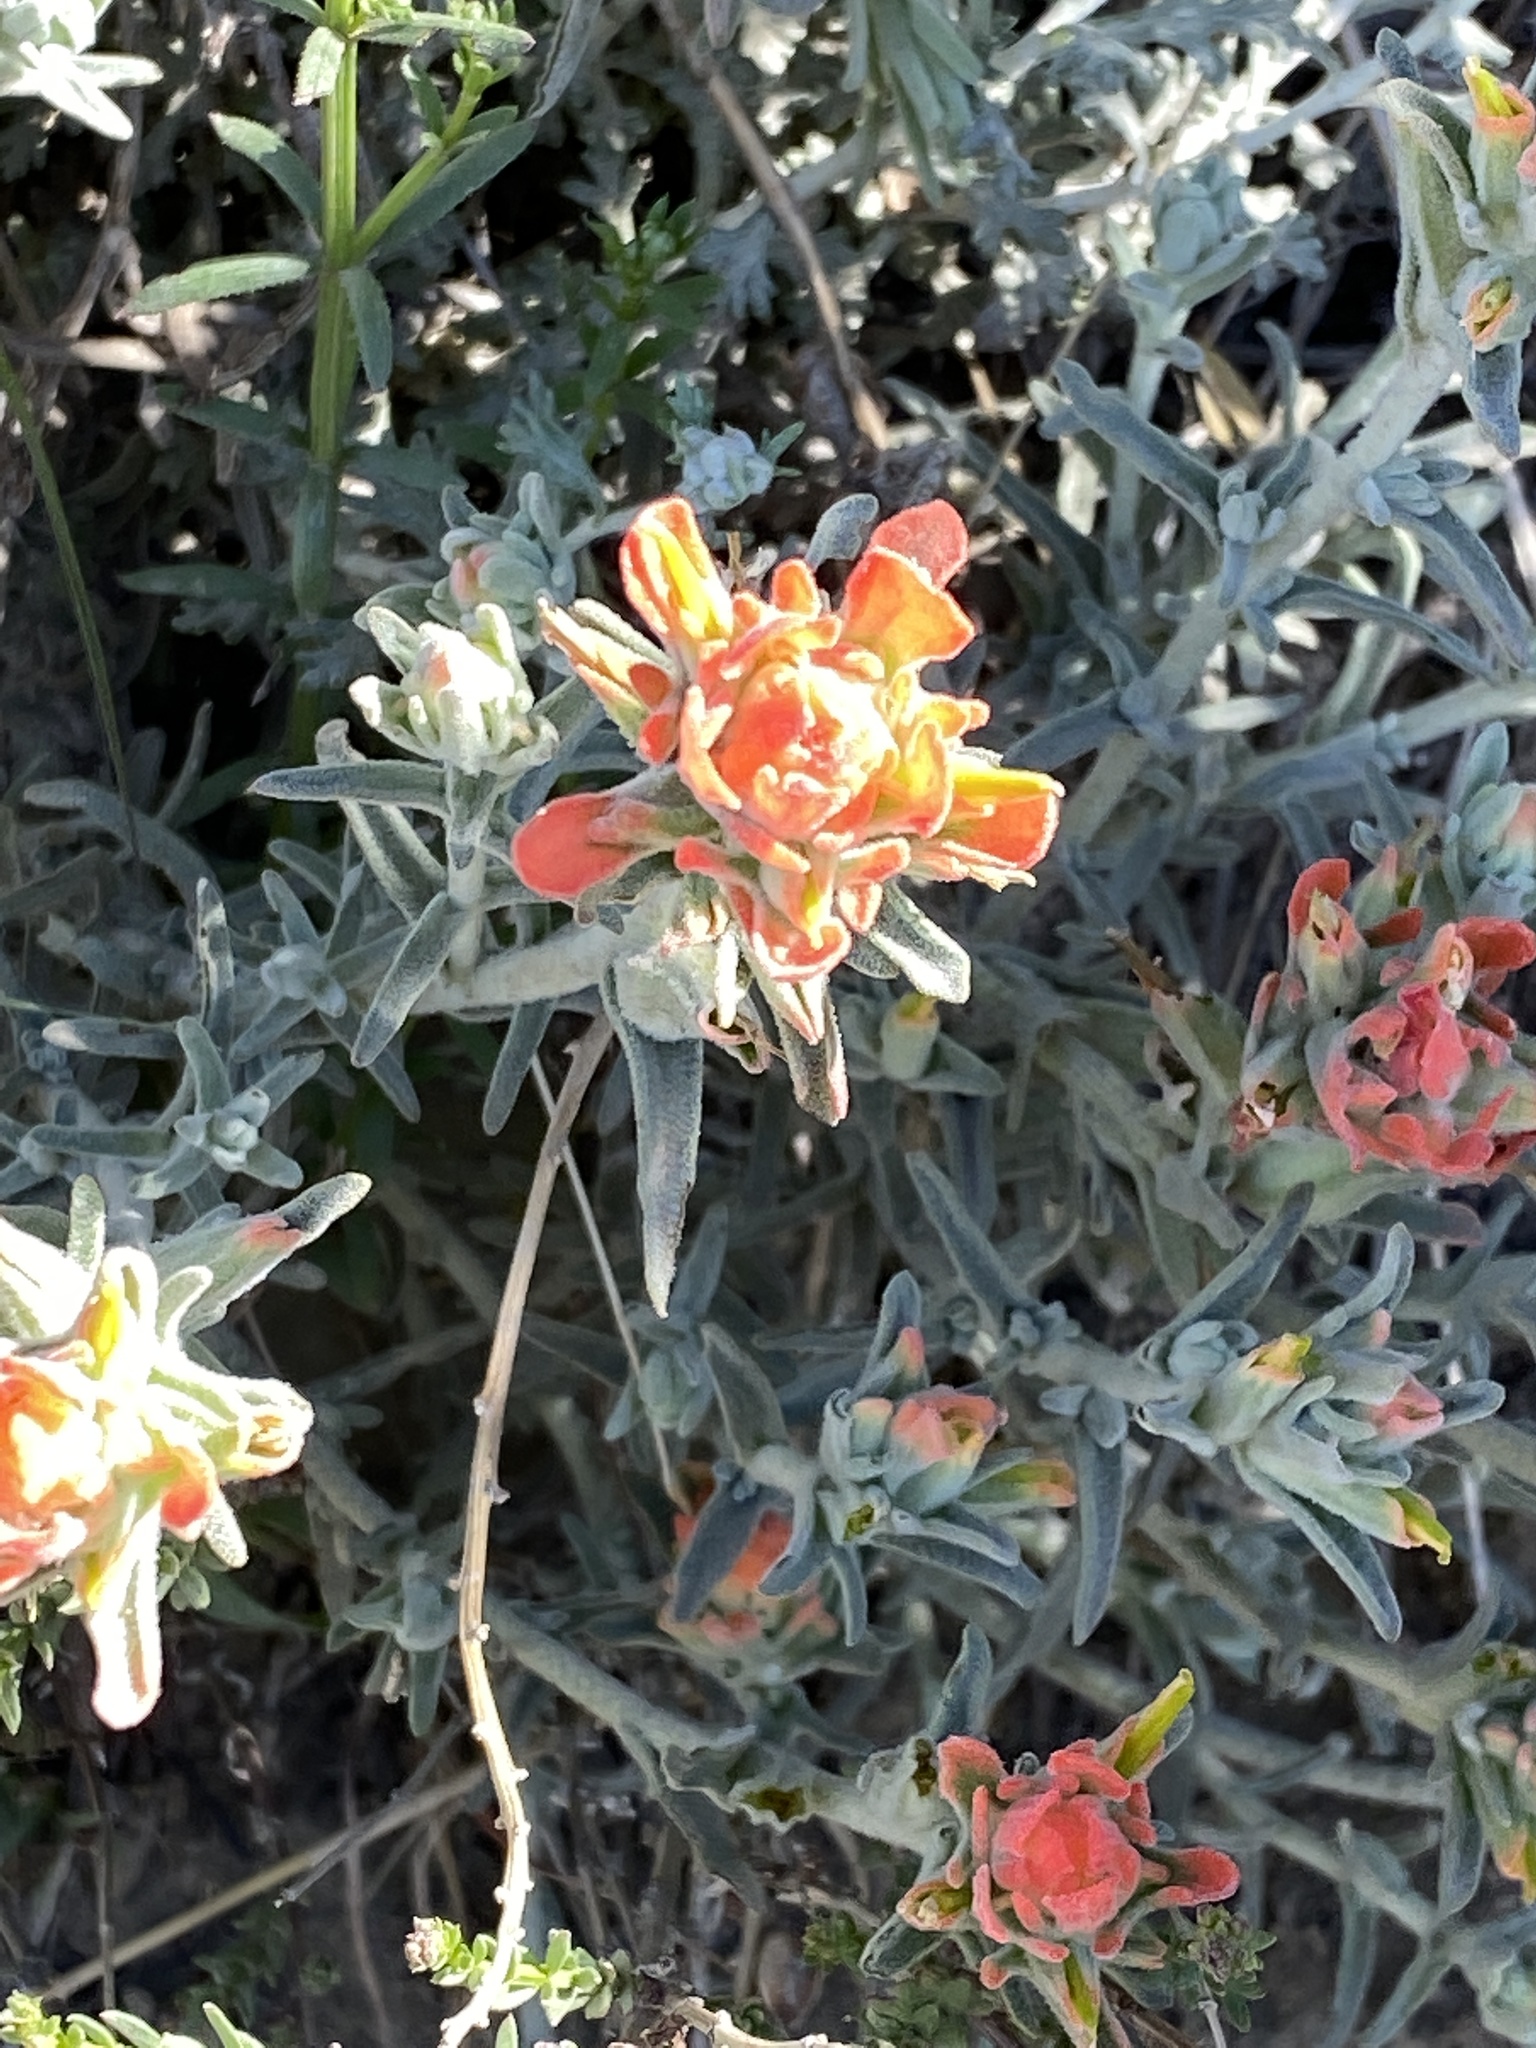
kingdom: Plantae
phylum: Tracheophyta
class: Magnoliopsida
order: Lamiales
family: Orobanchaceae
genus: Castilleja
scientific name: Castilleja foliolosa
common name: Woolly indian paintbrush
